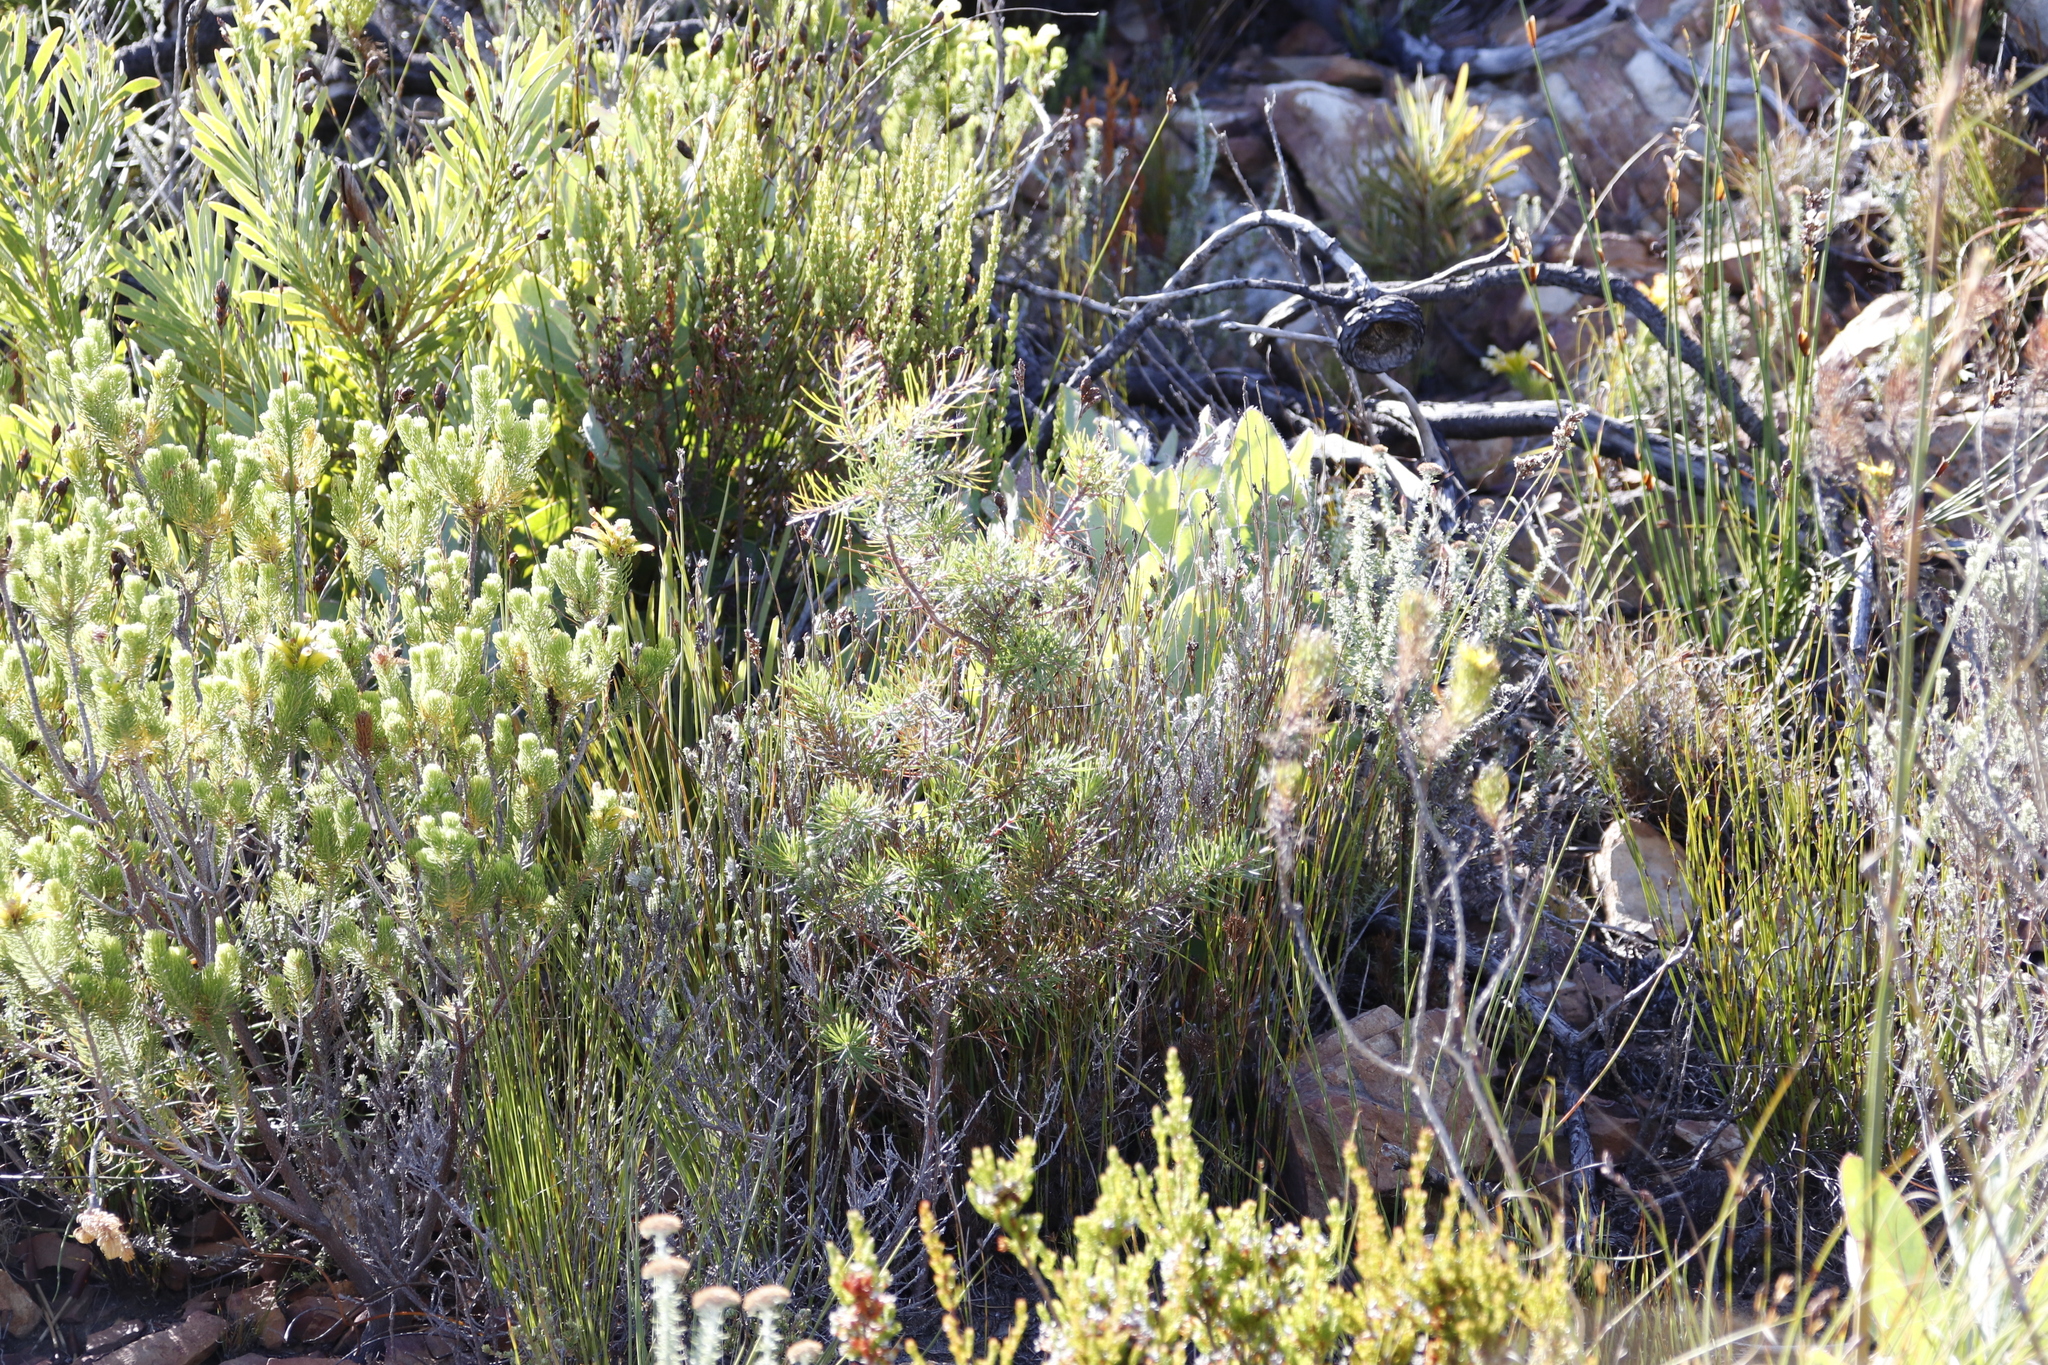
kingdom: Plantae
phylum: Tracheophyta
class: Magnoliopsida
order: Proteales
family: Proteaceae
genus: Hakea
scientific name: Hakea sericea
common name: Needle bush
